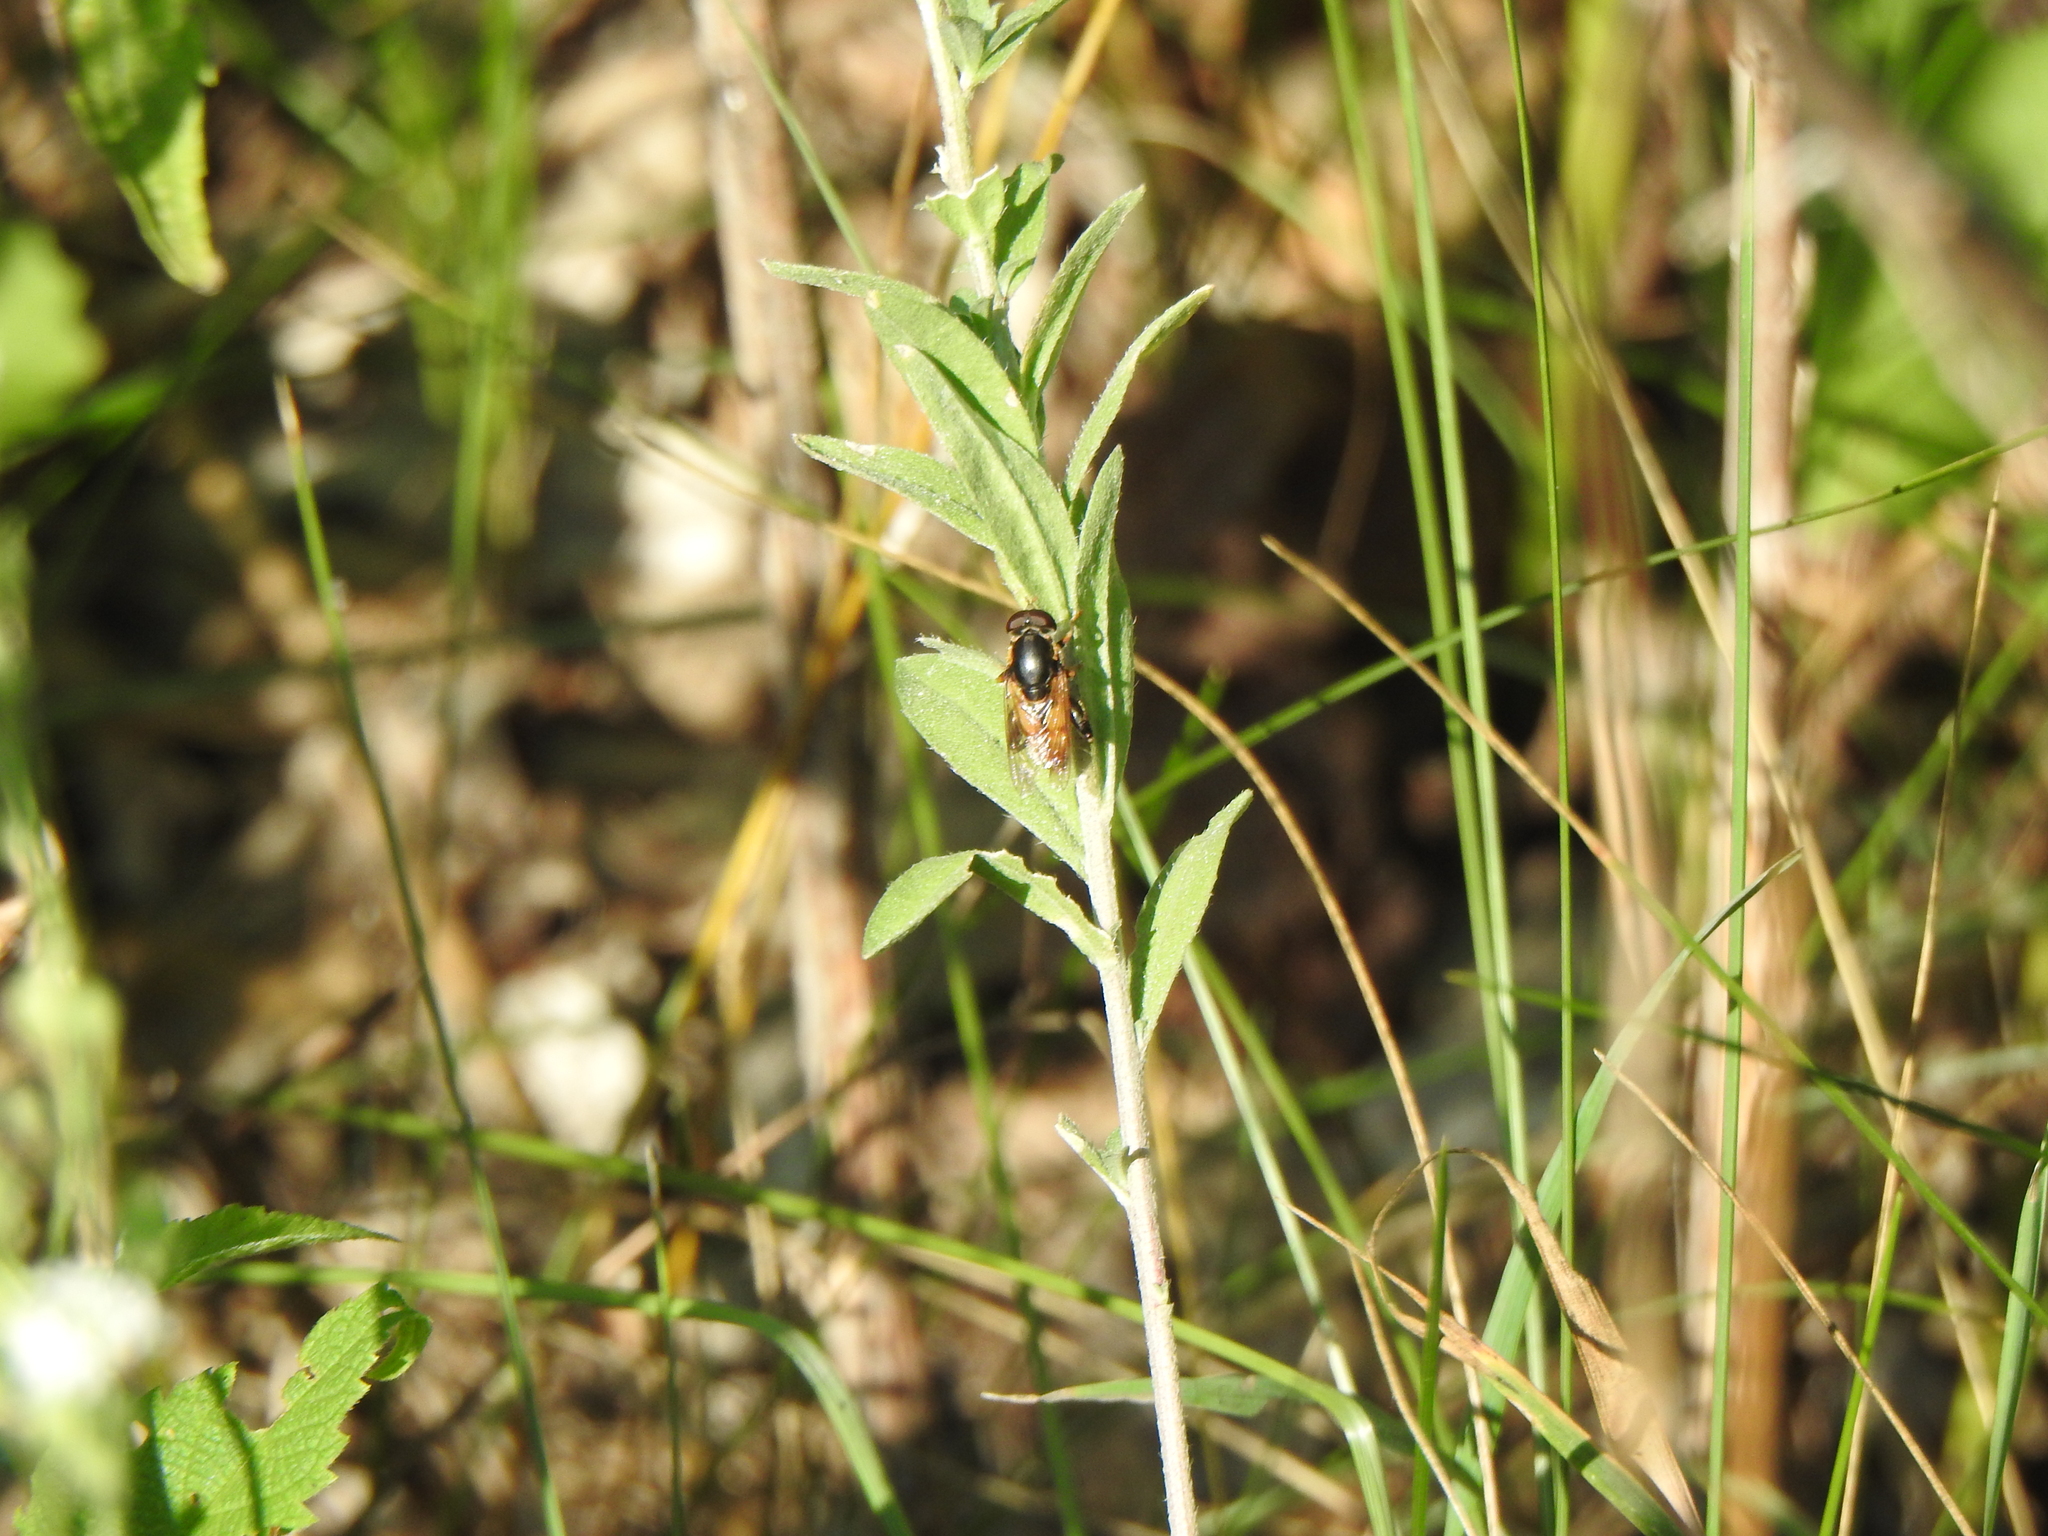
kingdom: Animalia
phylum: Arthropoda
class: Insecta
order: Diptera
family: Syrphidae
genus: Tropidia
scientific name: Tropidia quadrata
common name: Common thick-legged fly
